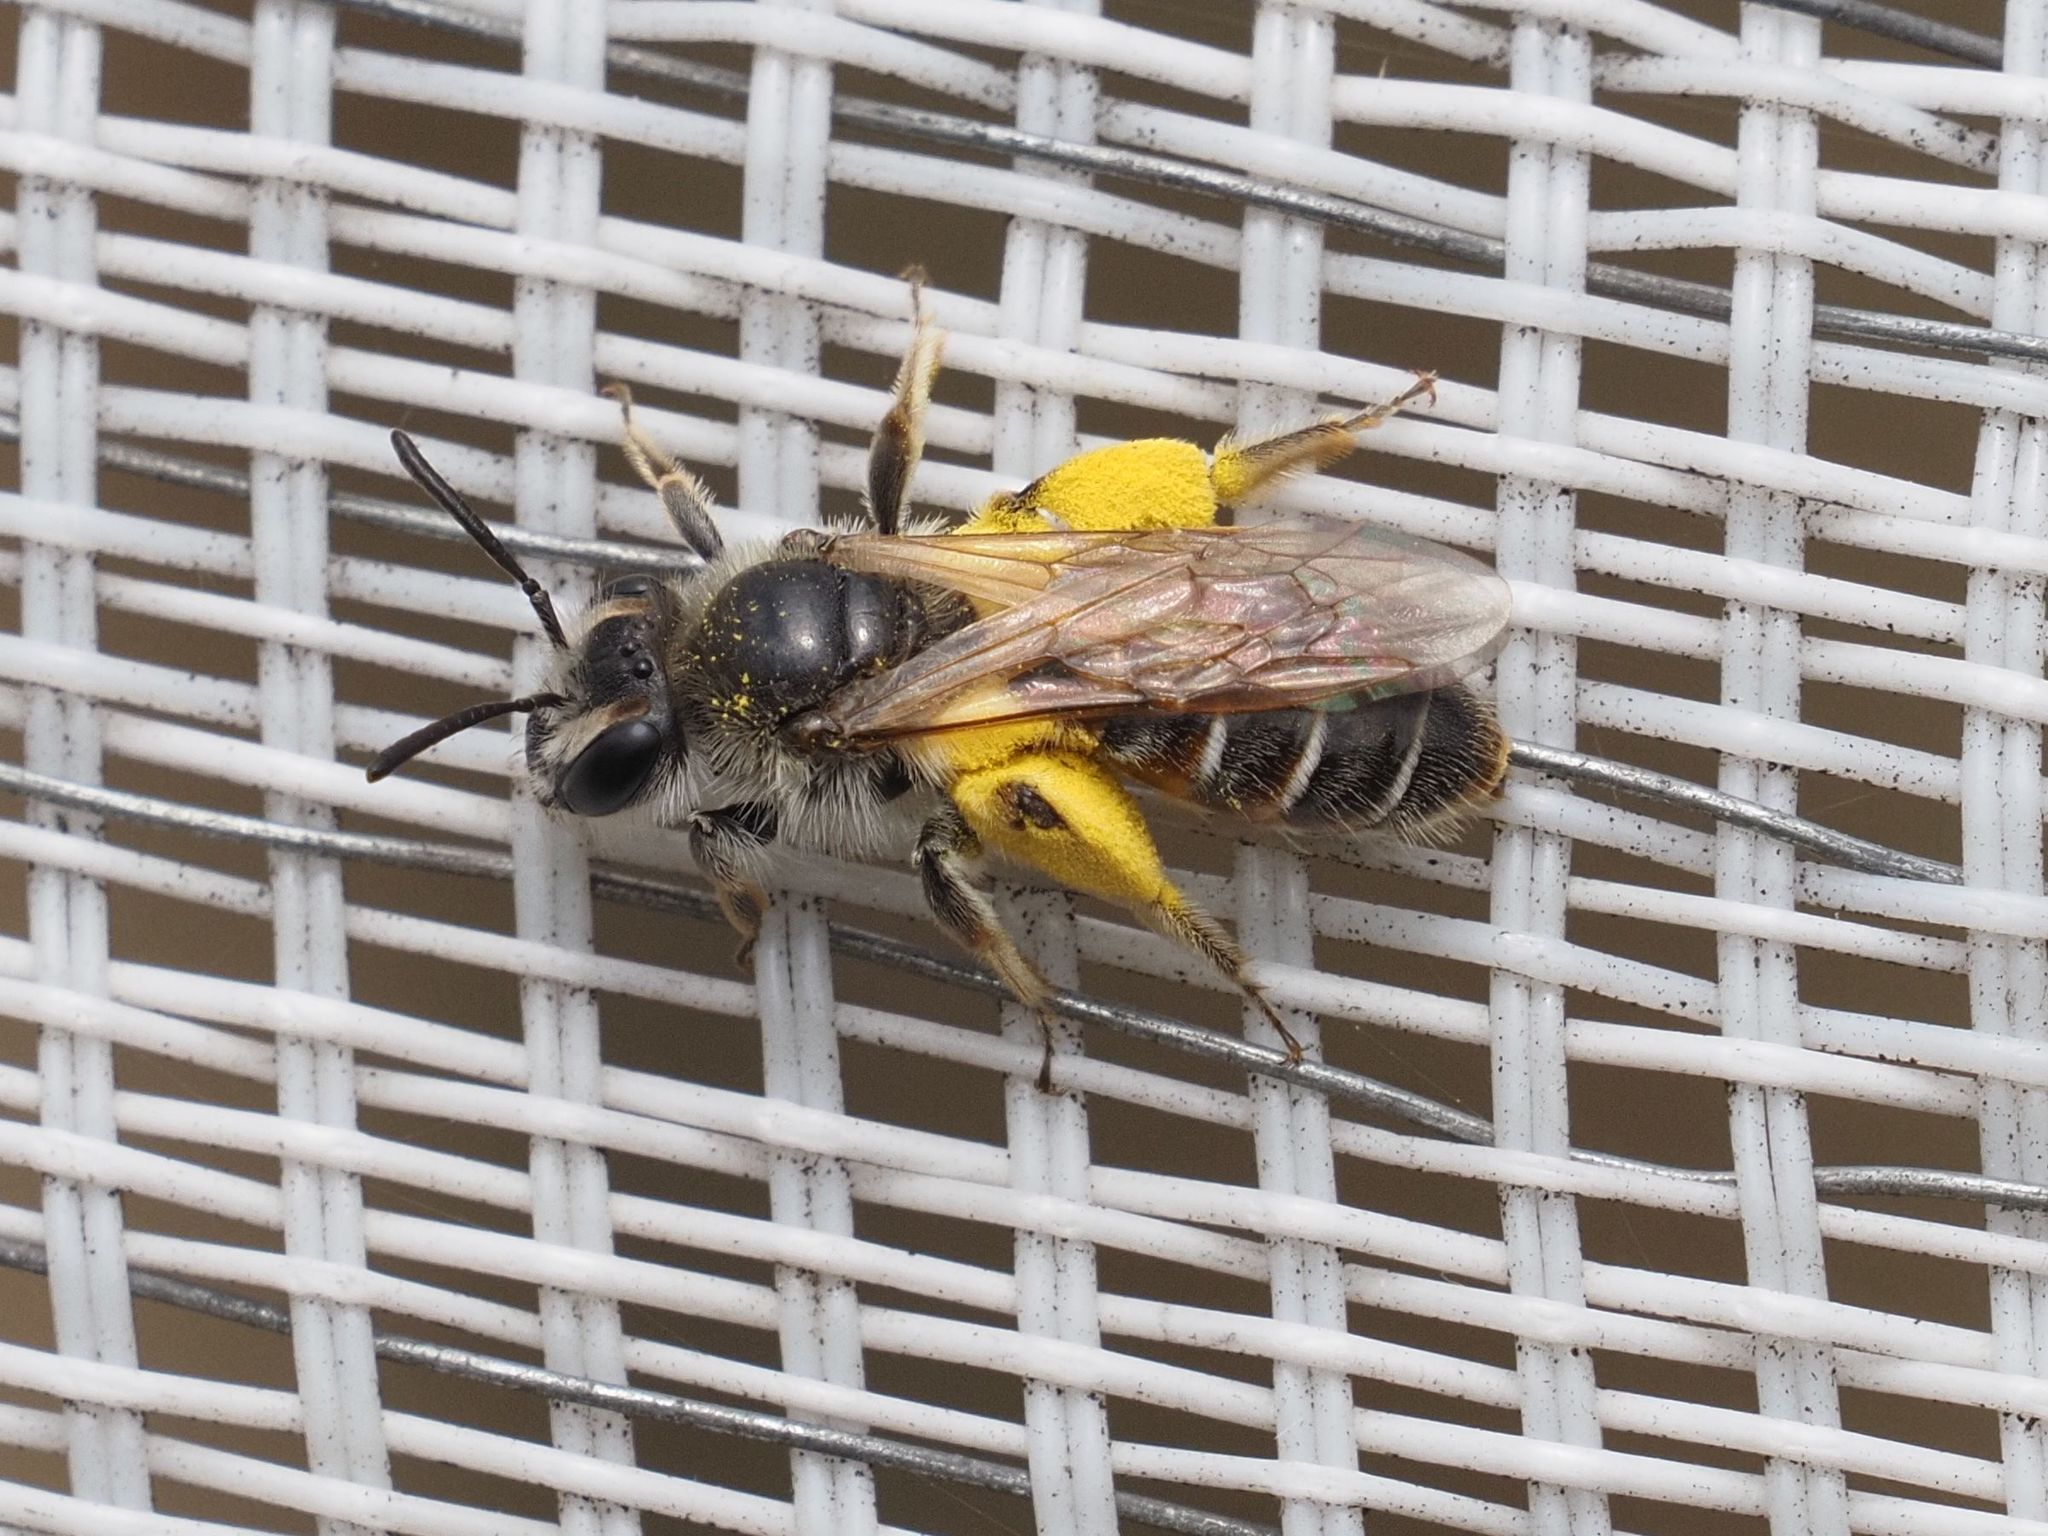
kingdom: Animalia
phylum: Arthropoda
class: Insecta
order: Hymenoptera
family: Andrenidae
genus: Andrena
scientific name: Andrena ventralis
